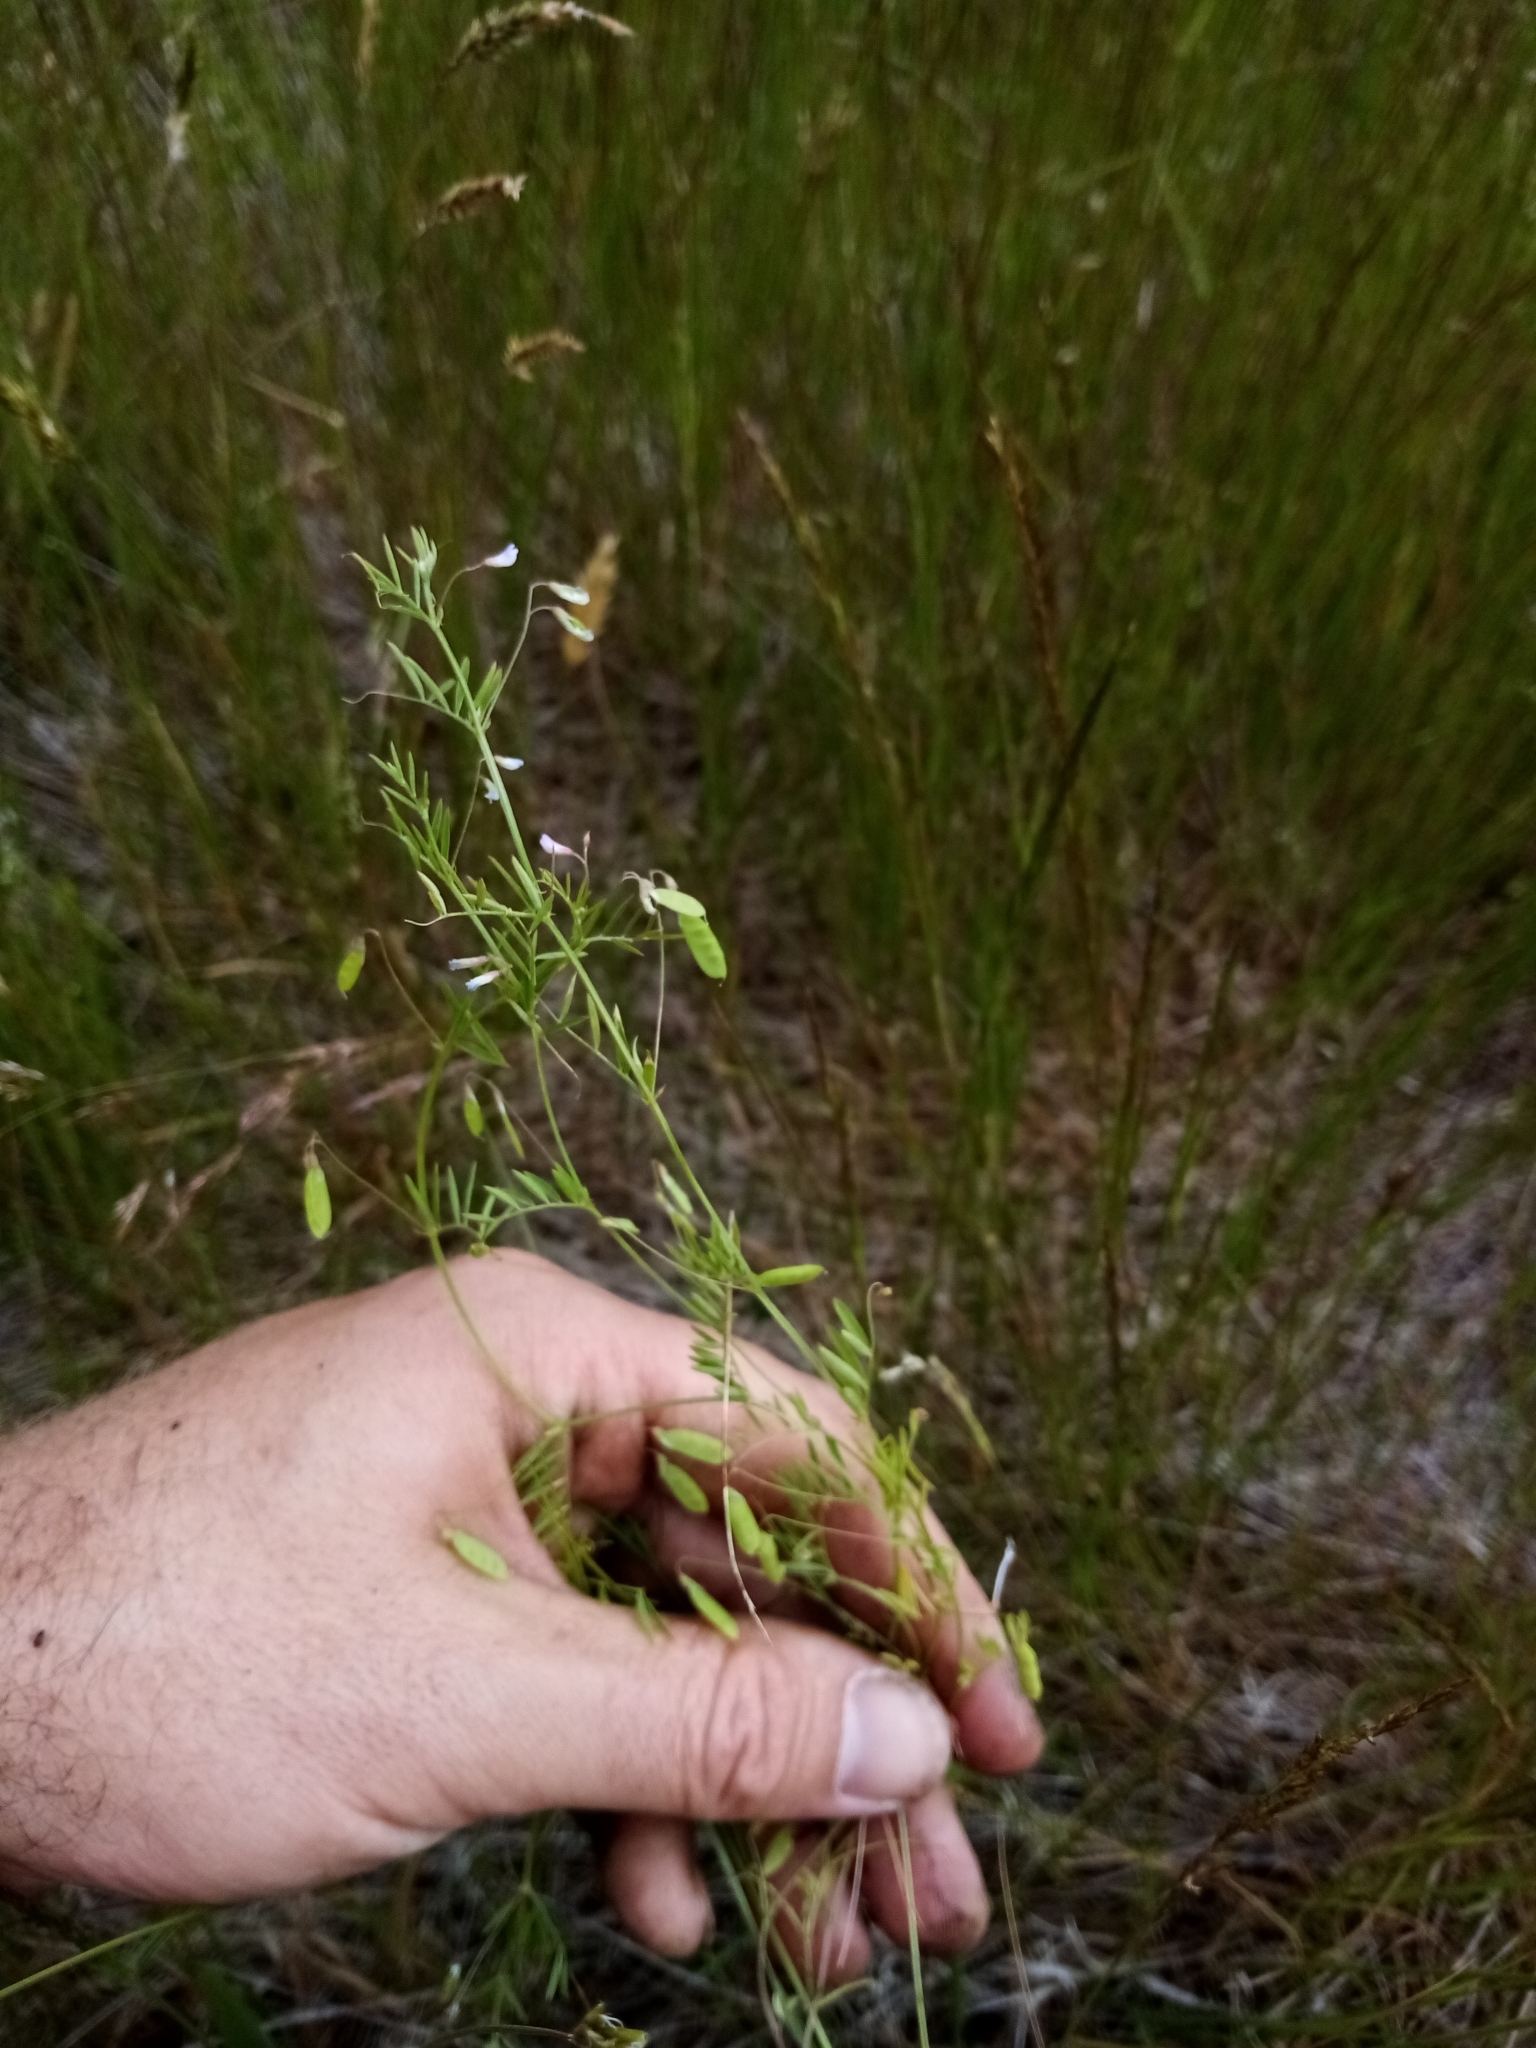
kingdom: Plantae
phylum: Tracheophyta
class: Magnoliopsida
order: Fabales
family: Fabaceae
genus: Vicia
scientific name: Vicia tetrasperma
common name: Smooth tare
